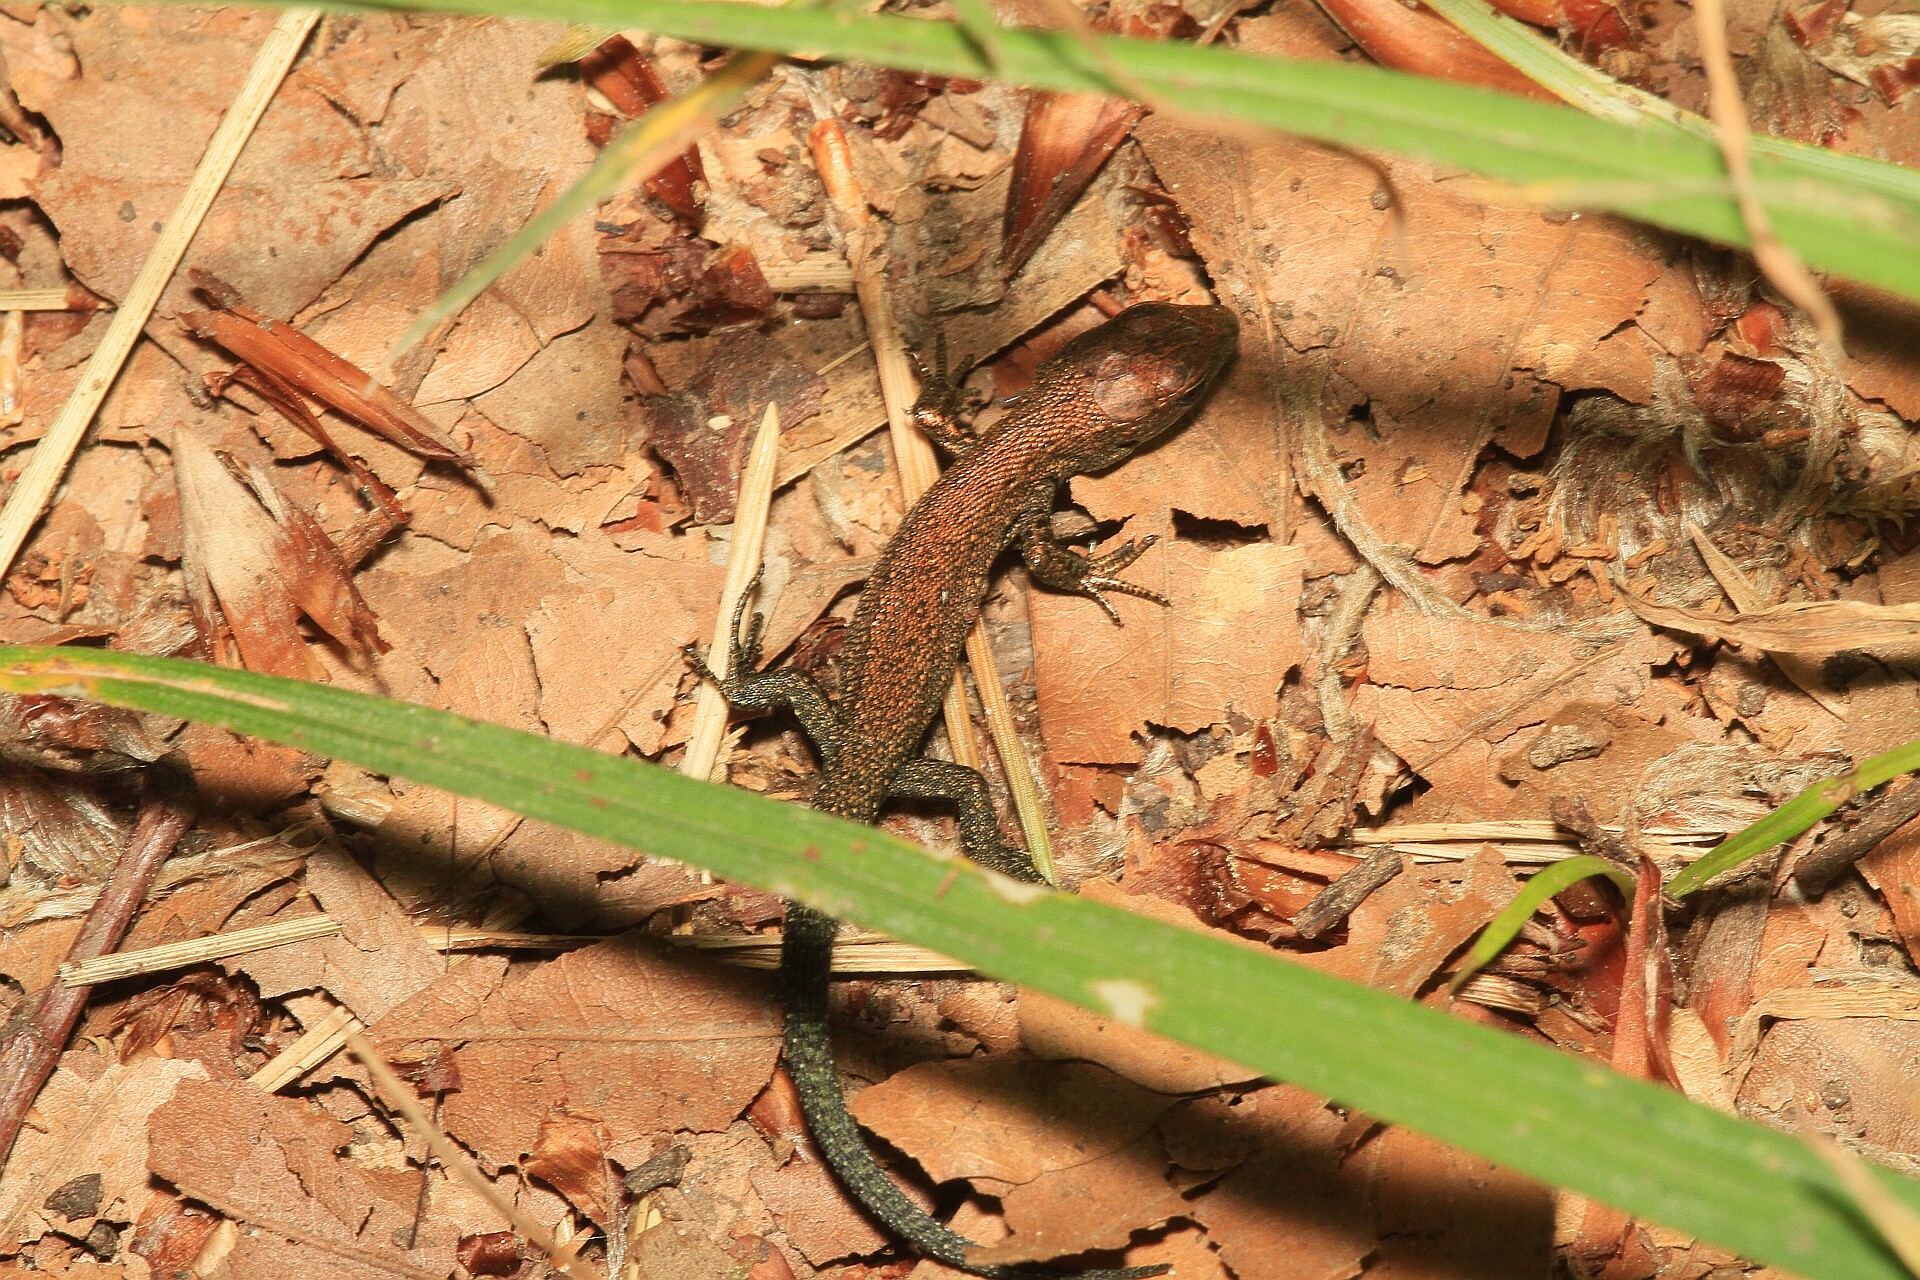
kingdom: Animalia
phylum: Chordata
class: Squamata
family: Lacertidae
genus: Zootoca
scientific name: Zootoca vivipara
